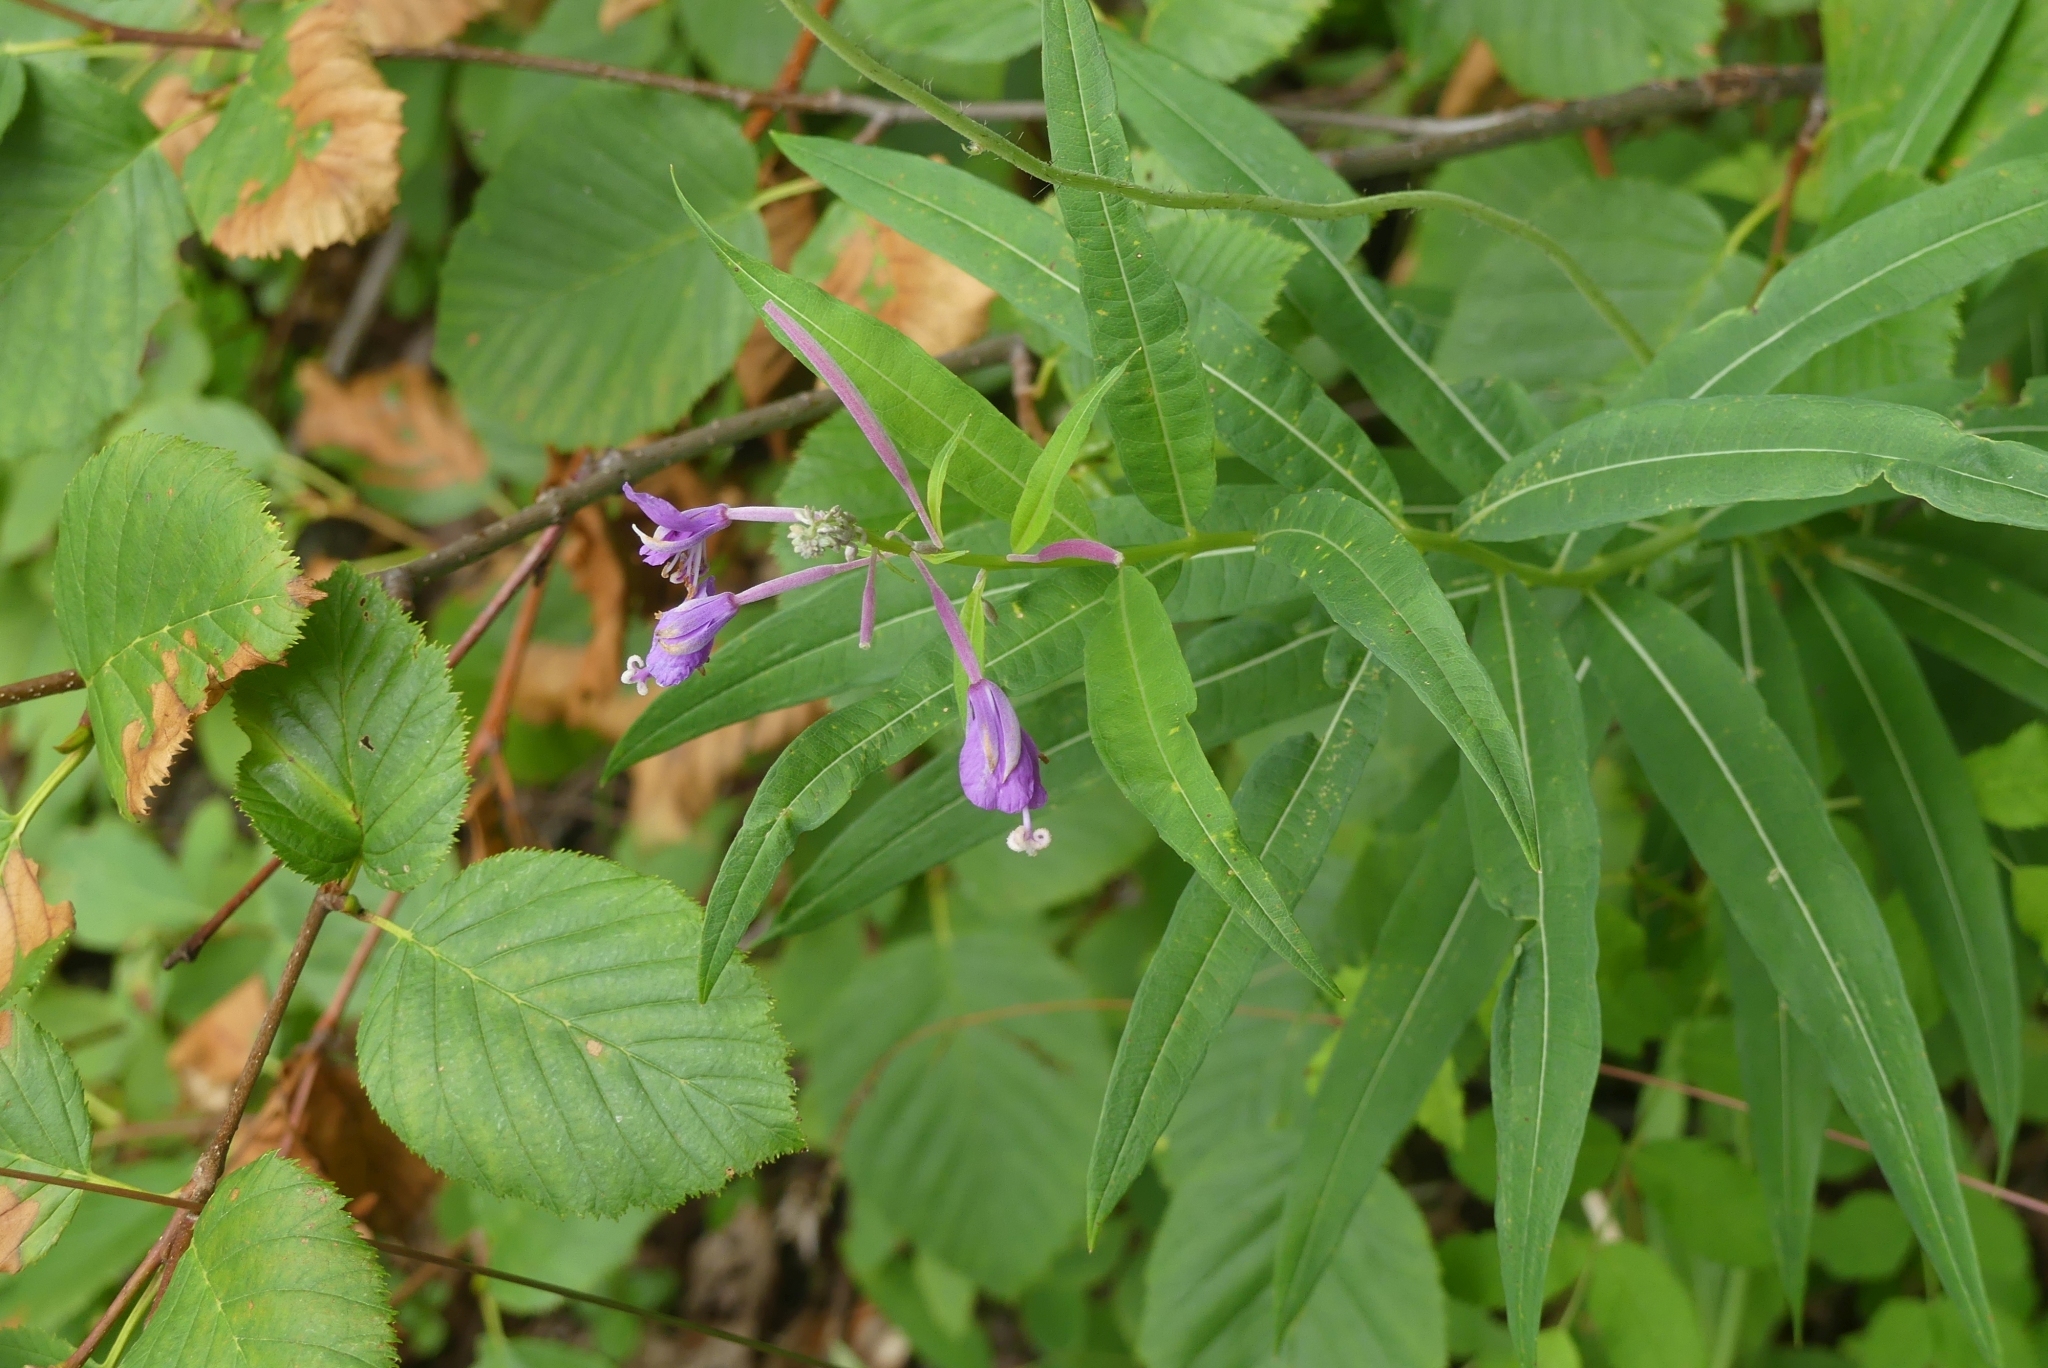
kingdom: Plantae
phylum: Tracheophyta
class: Magnoliopsida
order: Myrtales
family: Onagraceae
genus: Chamaenerion
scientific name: Chamaenerion angustifolium
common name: Fireweed
